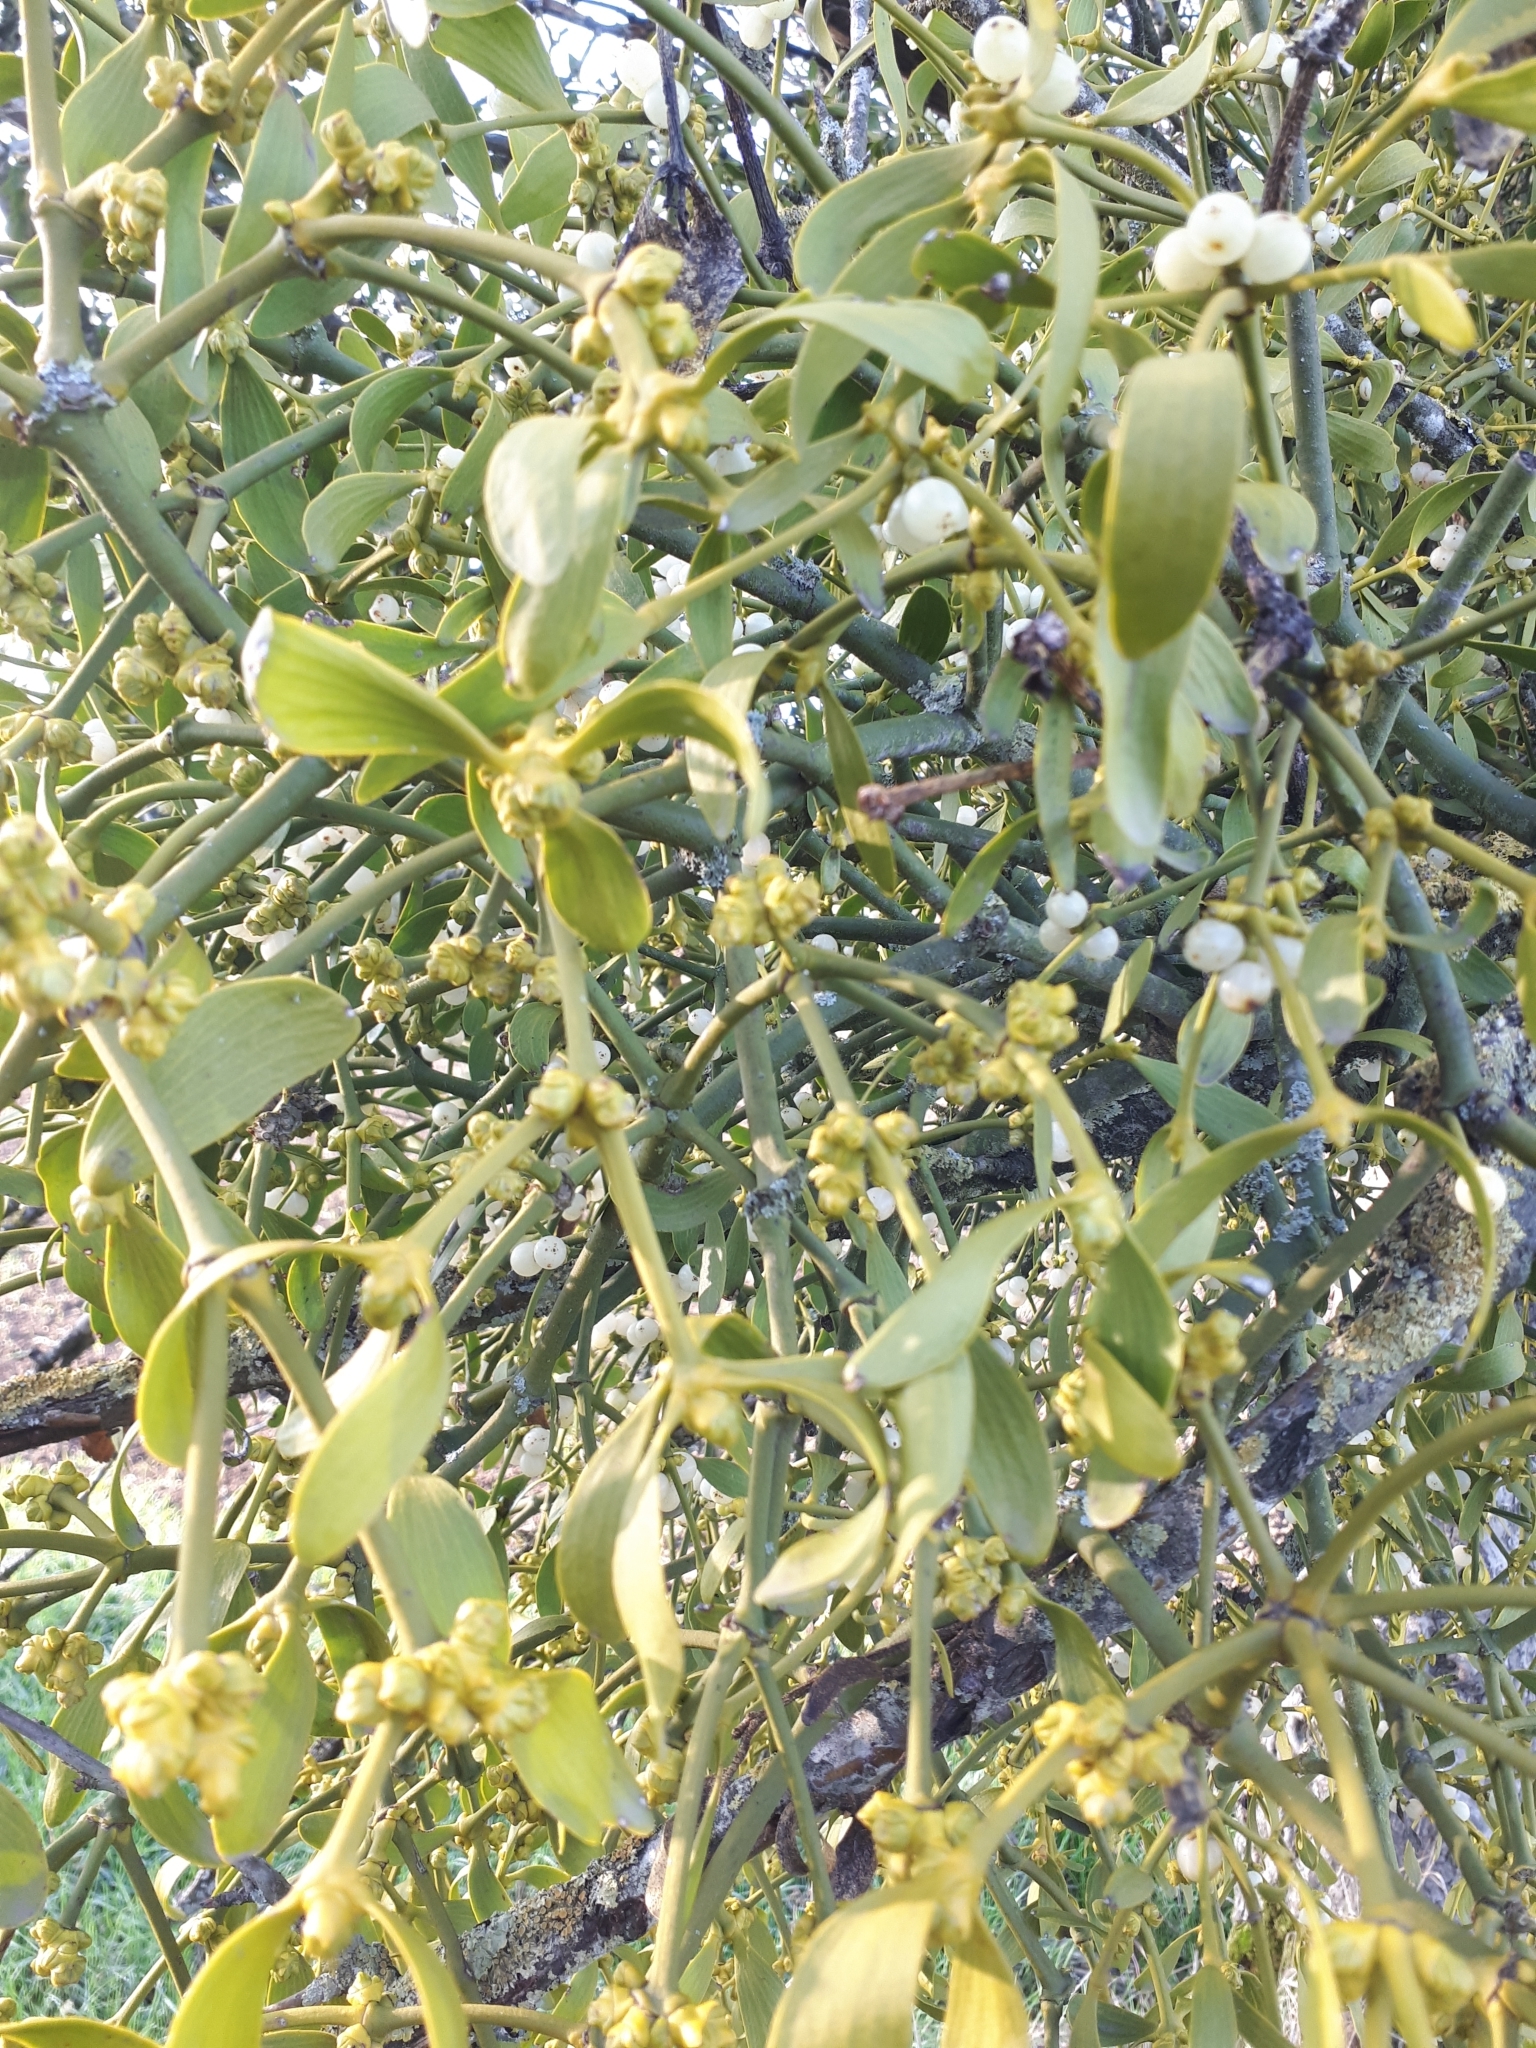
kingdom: Plantae
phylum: Tracheophyta
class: Magnoliopsida
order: Santalales
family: Viscaceae
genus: Viscum
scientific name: Viscum album
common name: Mistletoe
